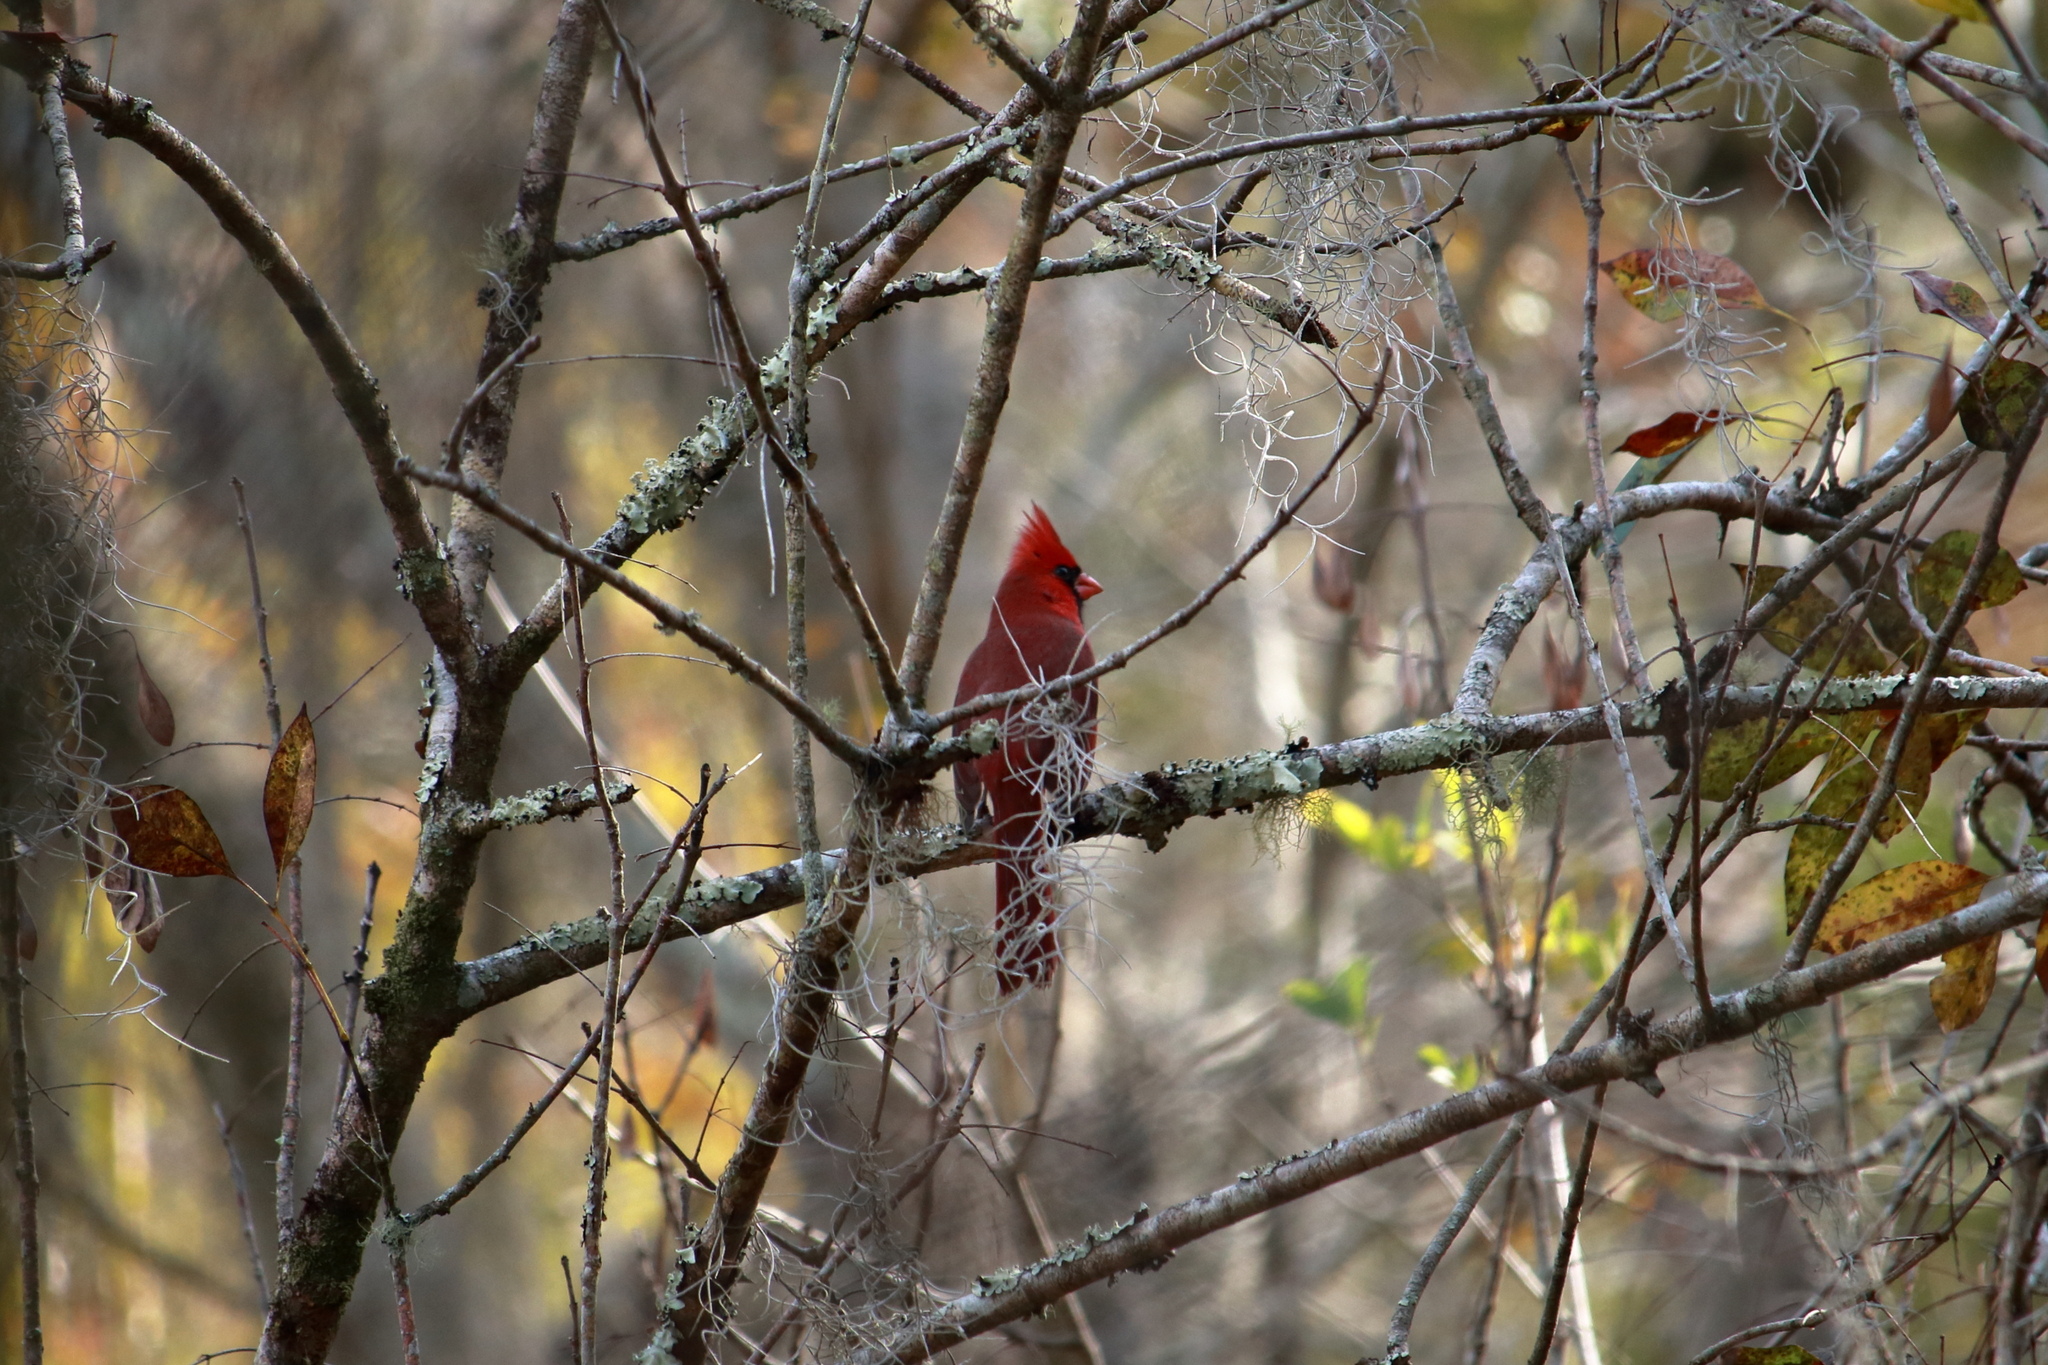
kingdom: Animalia
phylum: Chordata
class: Aves
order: Passeriformes
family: Cardinalidae
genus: Cardinalis
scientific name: Cardinalis cardinalis
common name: Northern cardinal
